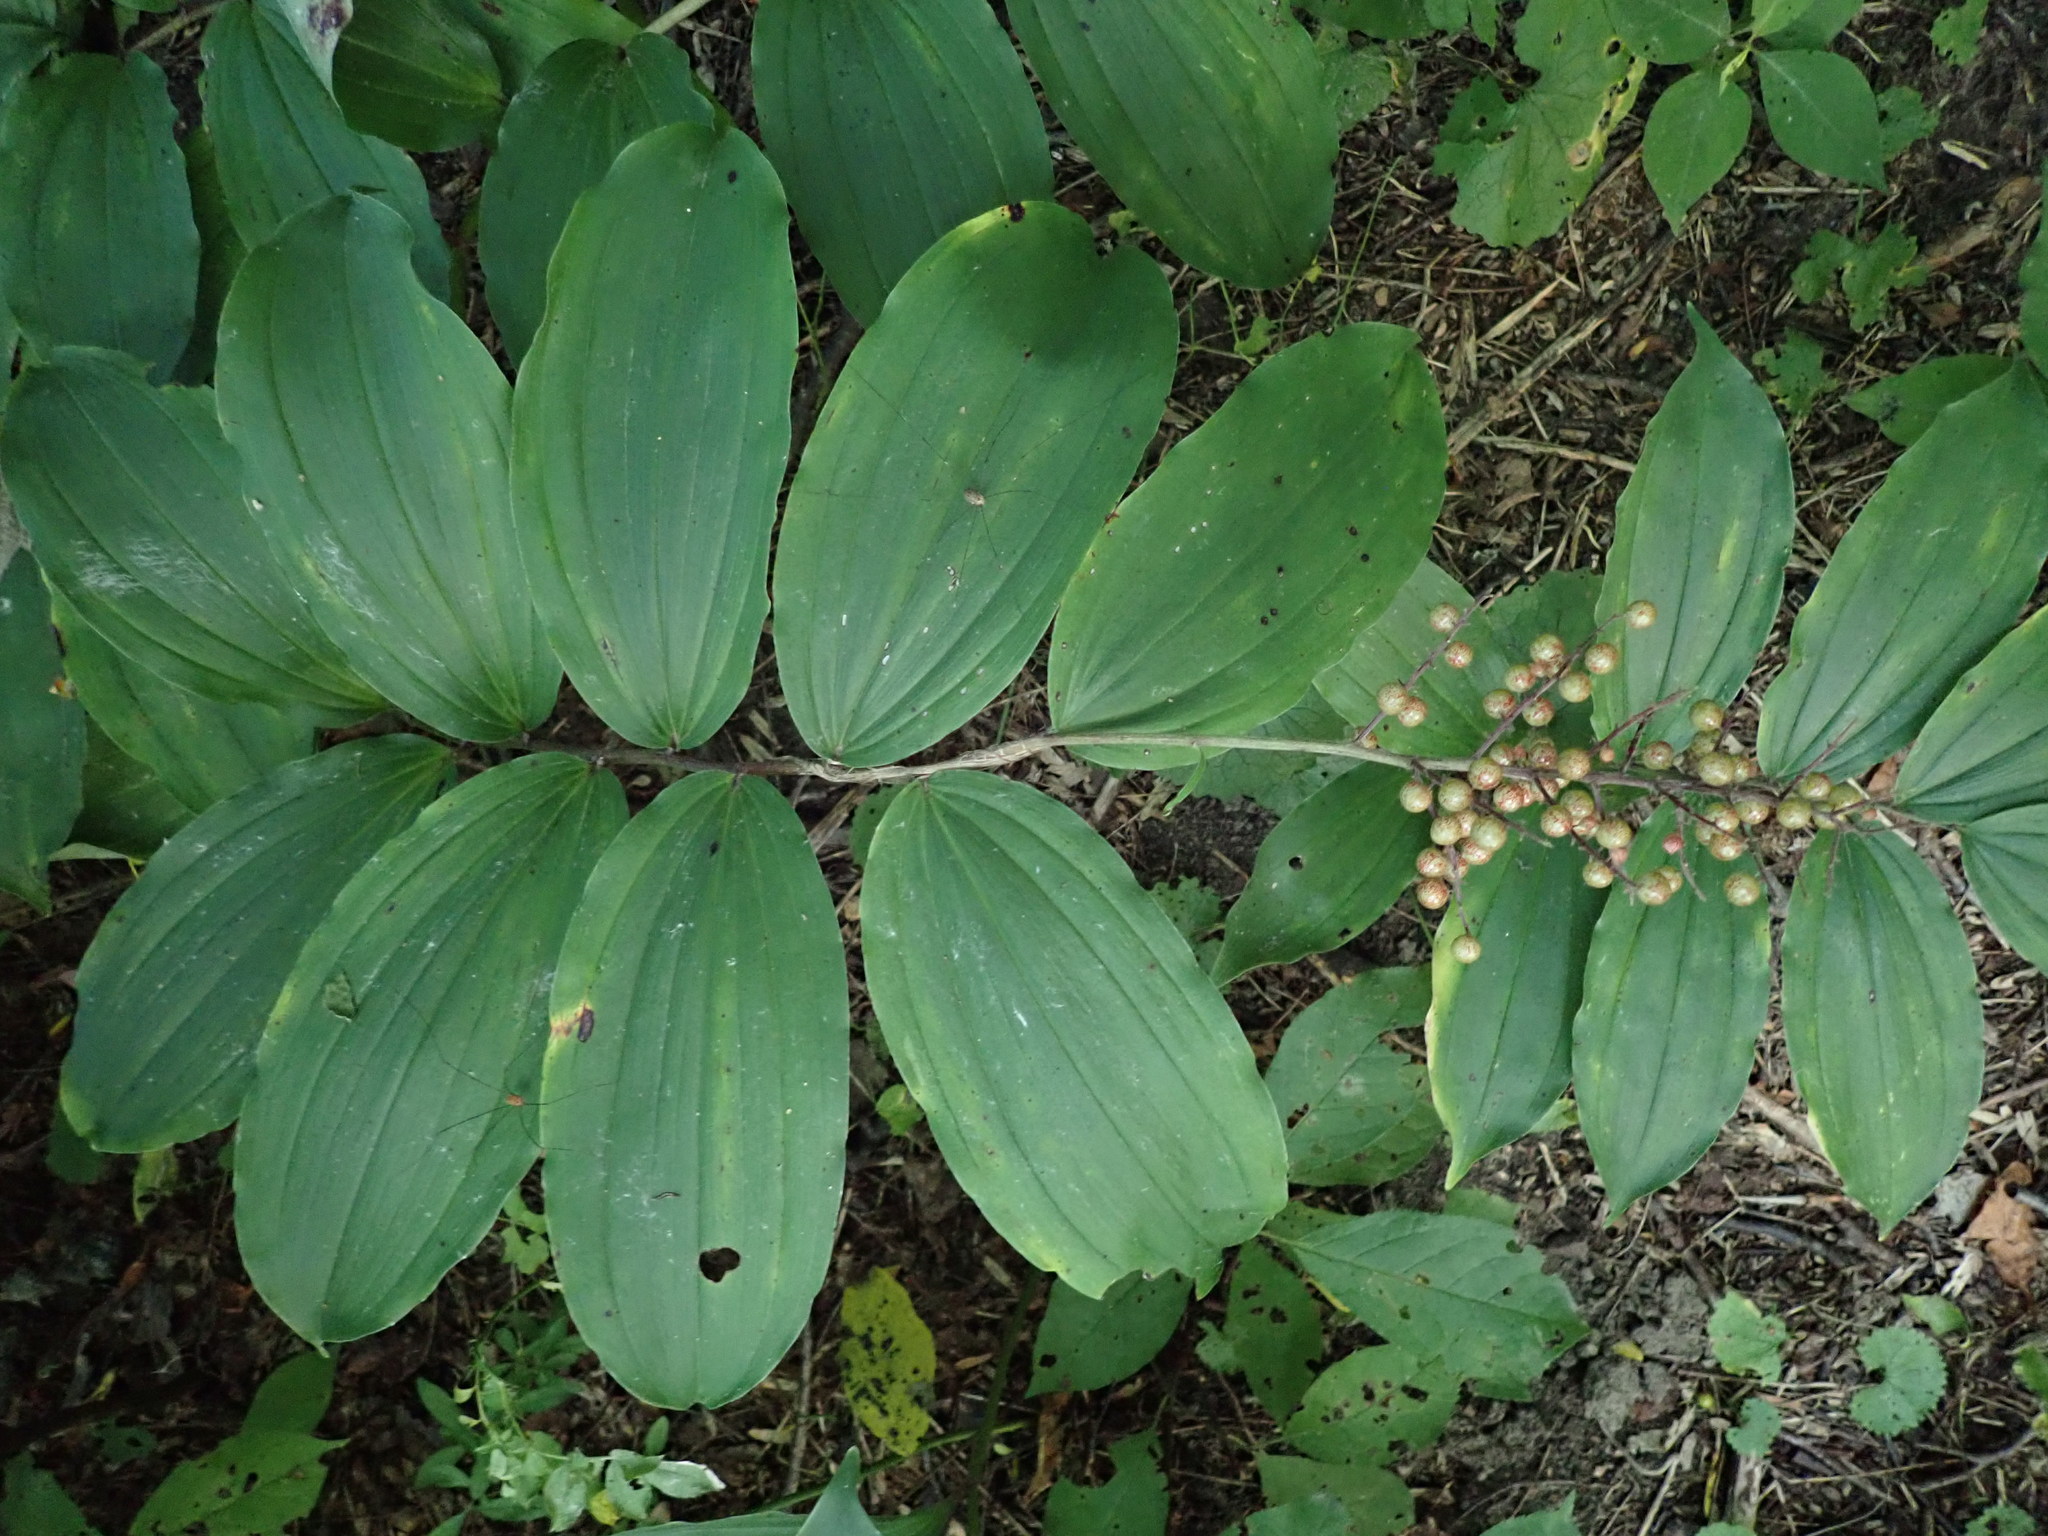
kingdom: Plantae
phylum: Tracheophyta
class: Liliopsida
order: Asparagales
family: Asparagaceae
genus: Maianthemum
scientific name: Maianthemum racemosum
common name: False spikenard
